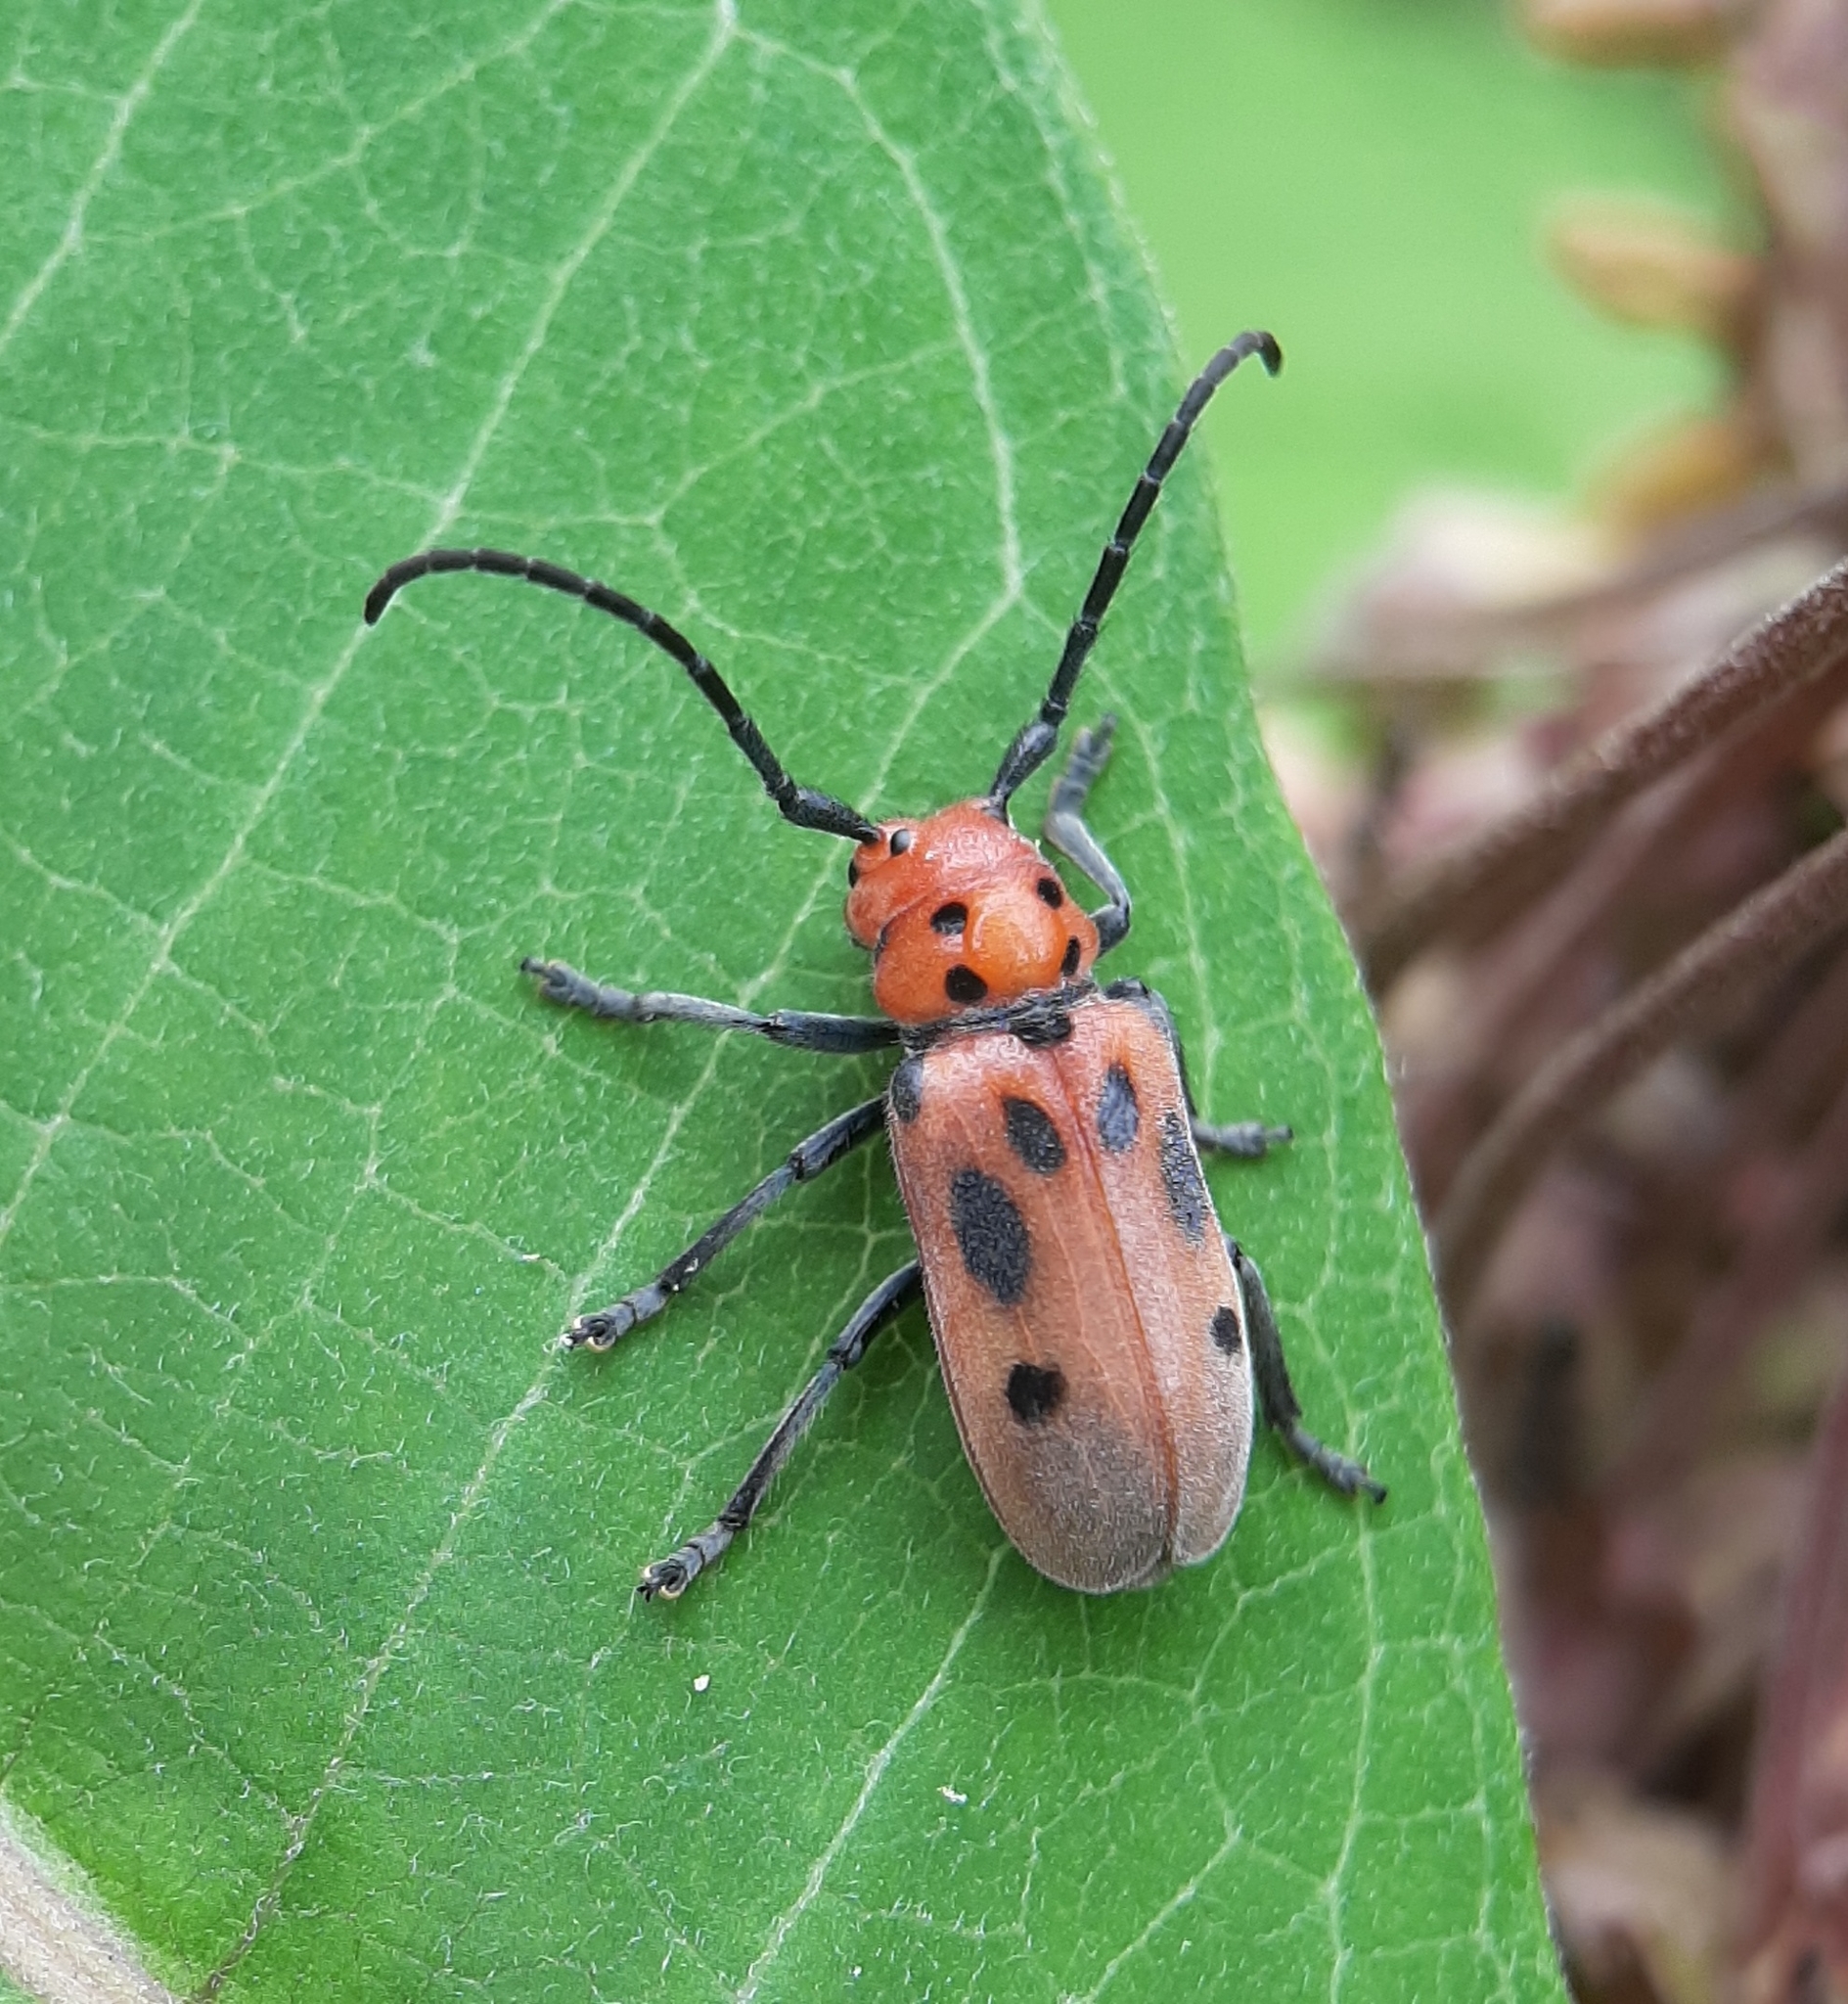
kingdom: Animalia
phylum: Arthropoda
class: Insecta
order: Coleoptera
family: Cerambycidae
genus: Tetraopes
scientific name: Tetraopes tetrophthalmus
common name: Red milkweed beetle
